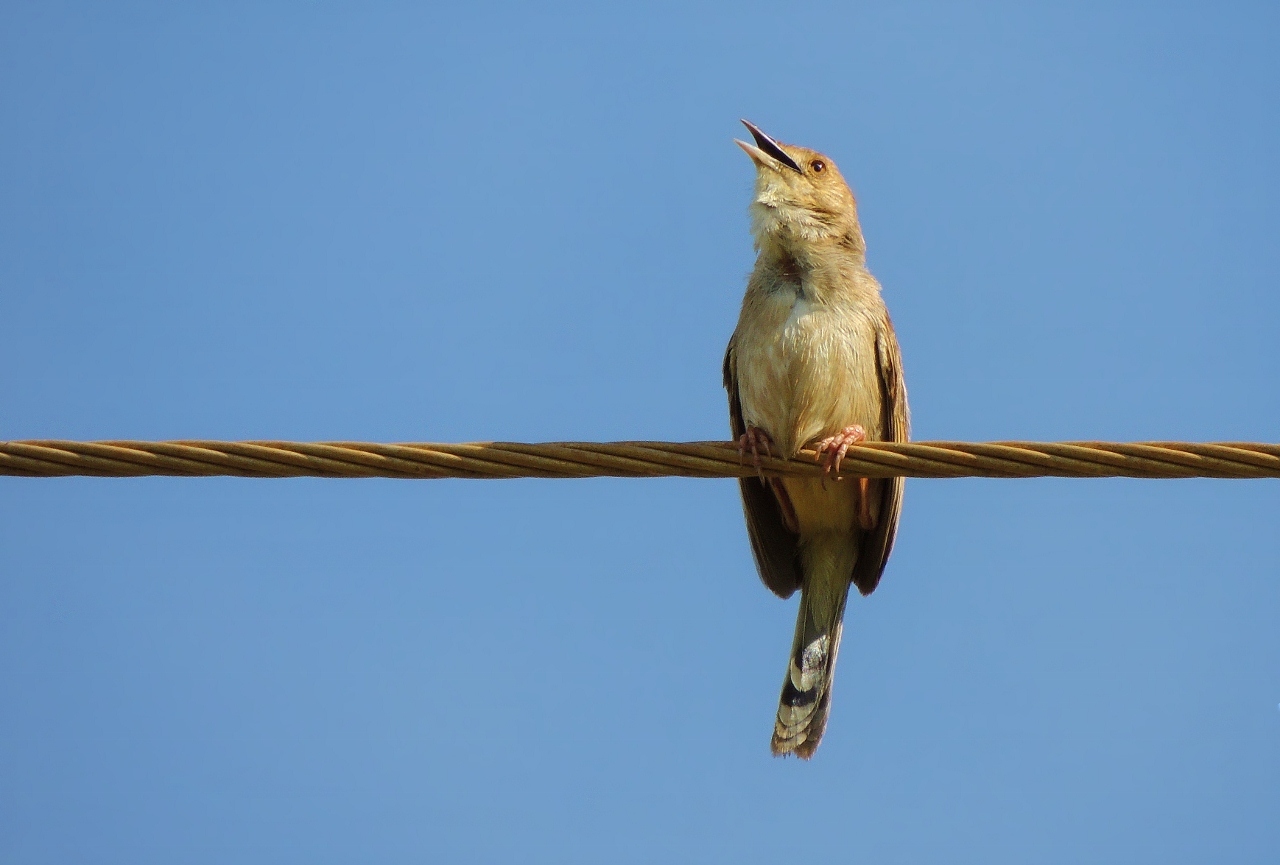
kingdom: Animalia
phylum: Chordata
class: Aves
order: Passeriformes
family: Cisticolidae
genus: Cisticola
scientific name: Cisticola chiniana
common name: Rattling cisticola
